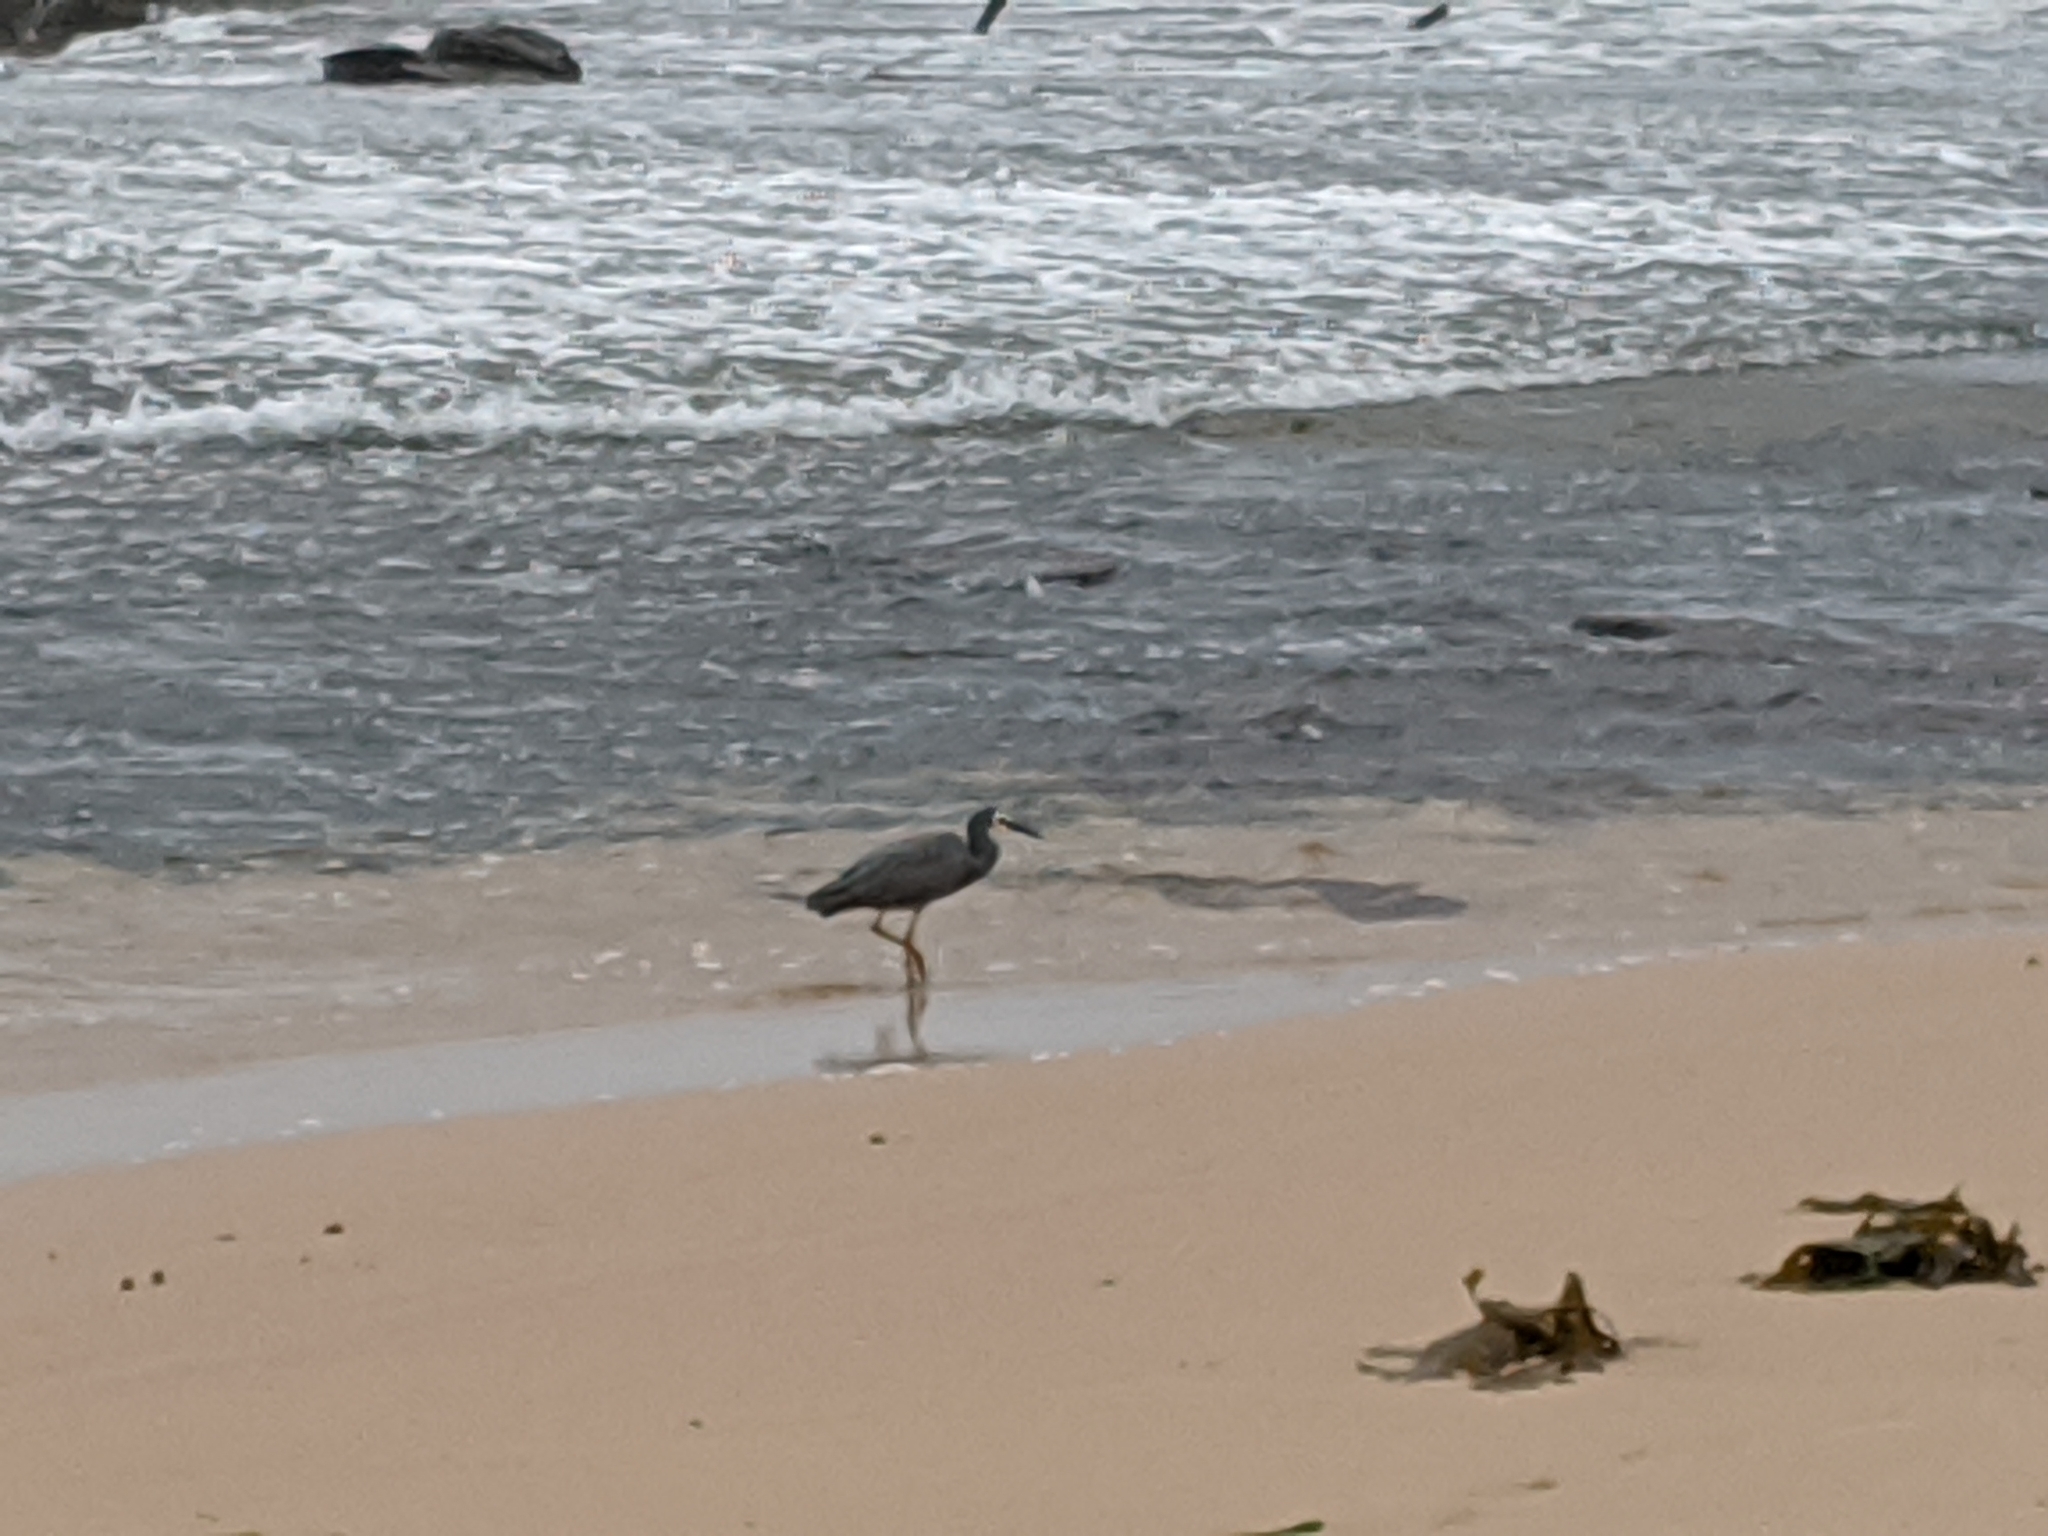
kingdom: Animalia
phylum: Chordata
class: Aves
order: Pelecaniformes
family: Ardeidae
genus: Egretta
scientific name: Egretta novaehollandiae
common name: White-faced heron
